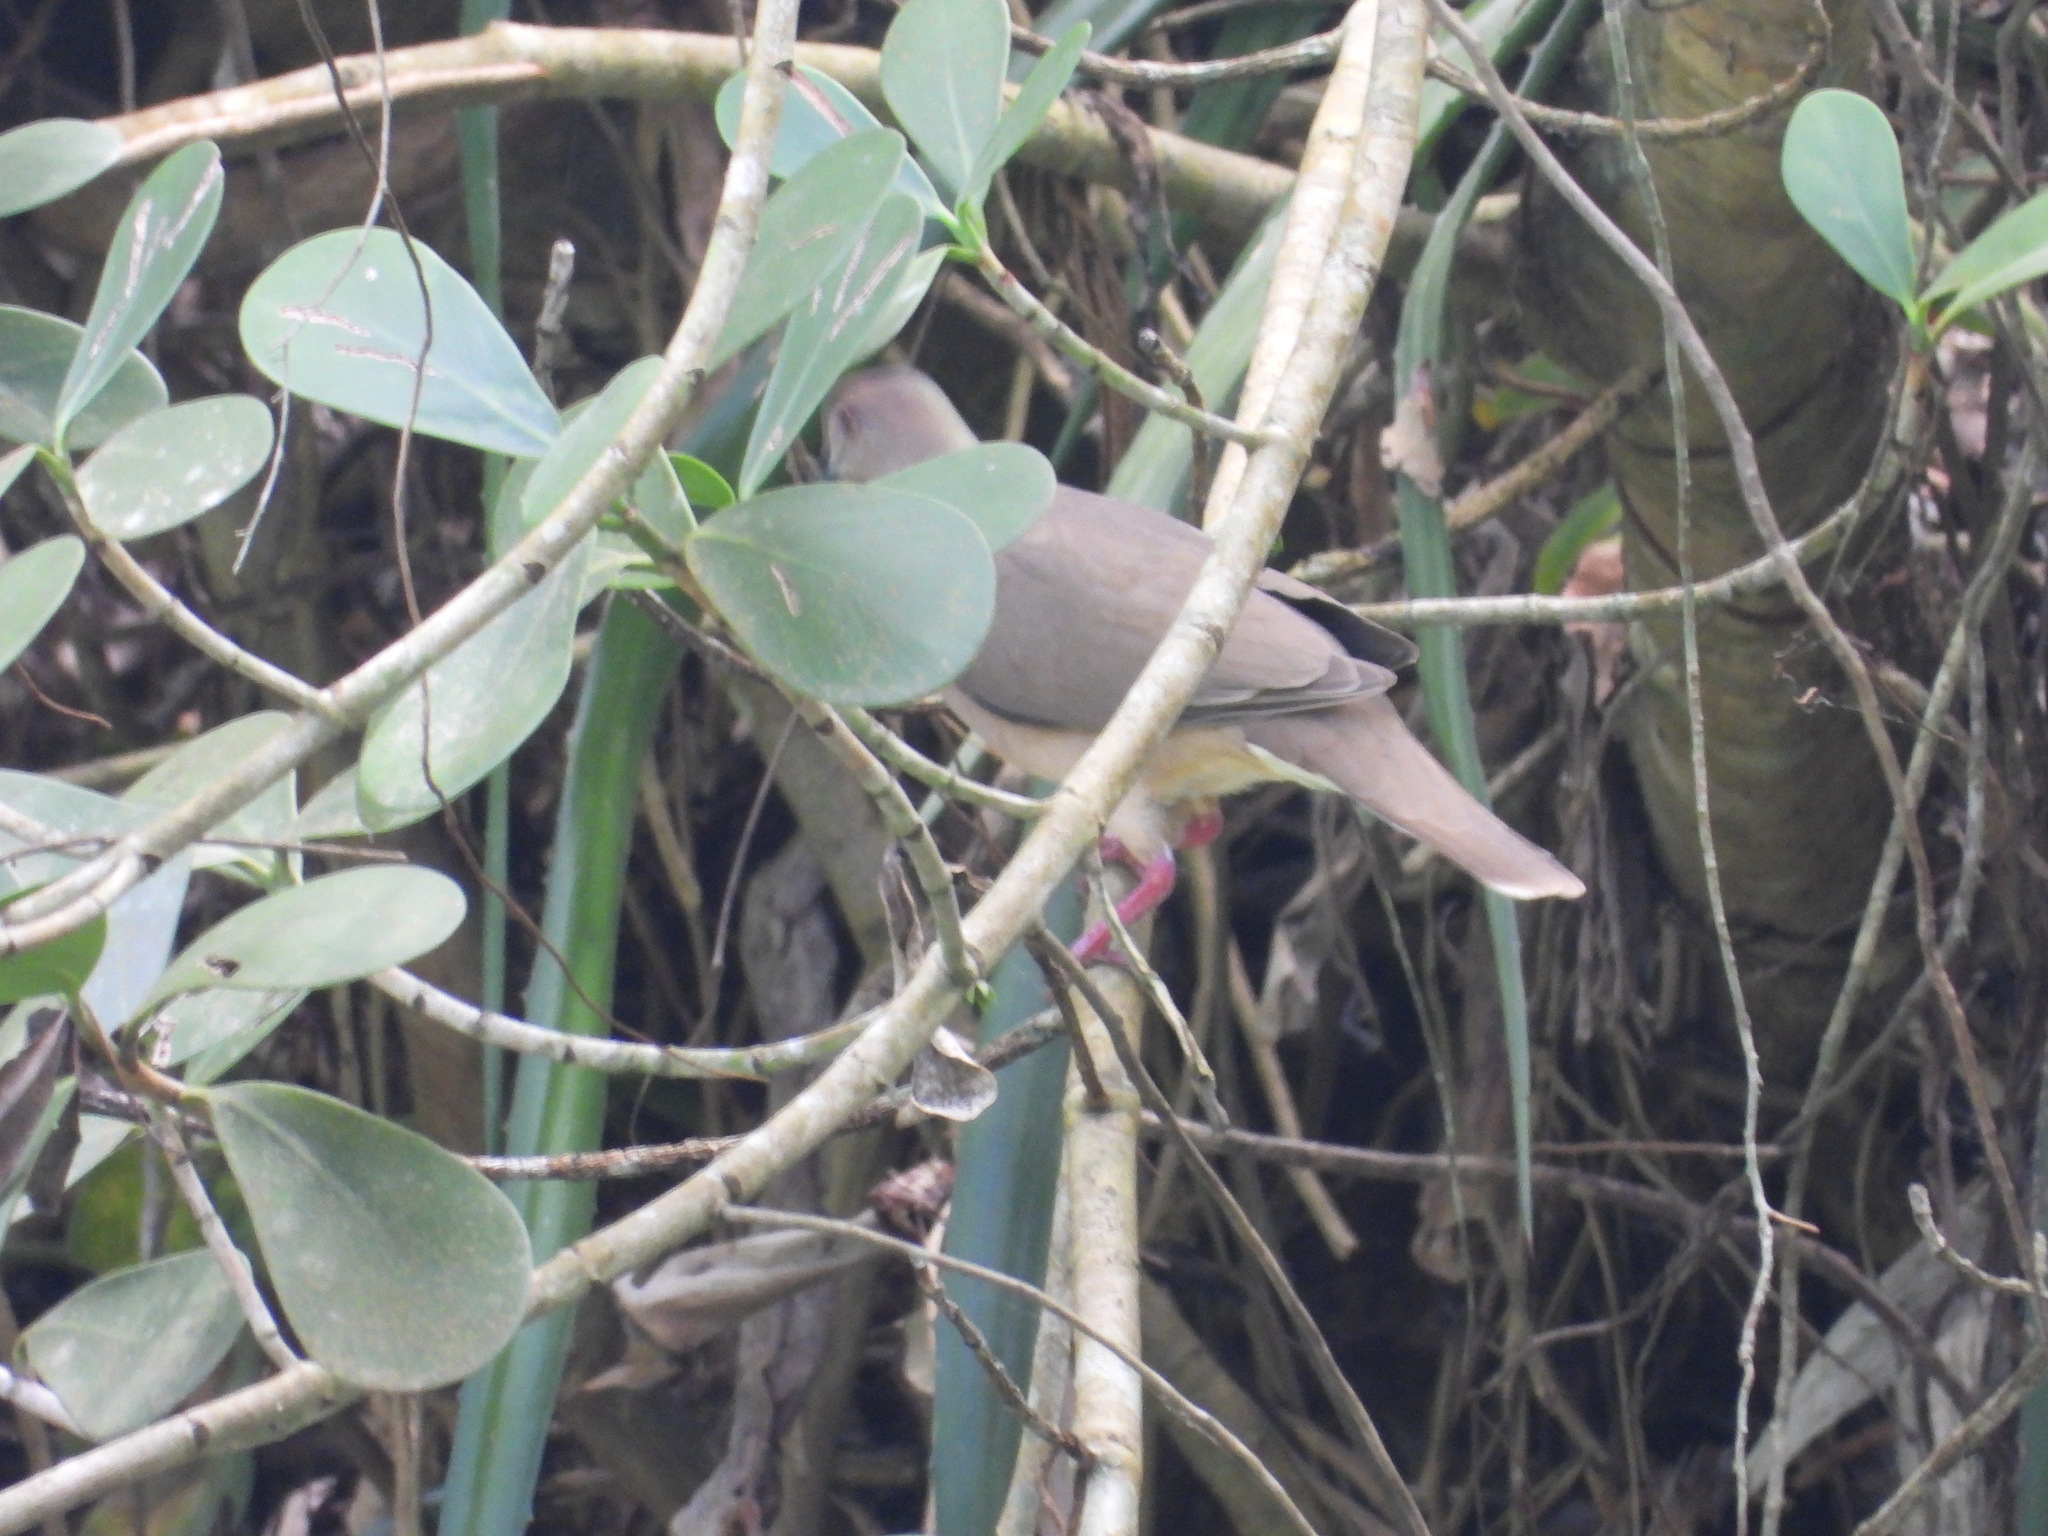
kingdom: Animalia
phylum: Chordata
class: Aves
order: Columbiformes
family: Columbidae
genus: Leptotila
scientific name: Leptotila verreauxi
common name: White-tipped dove
